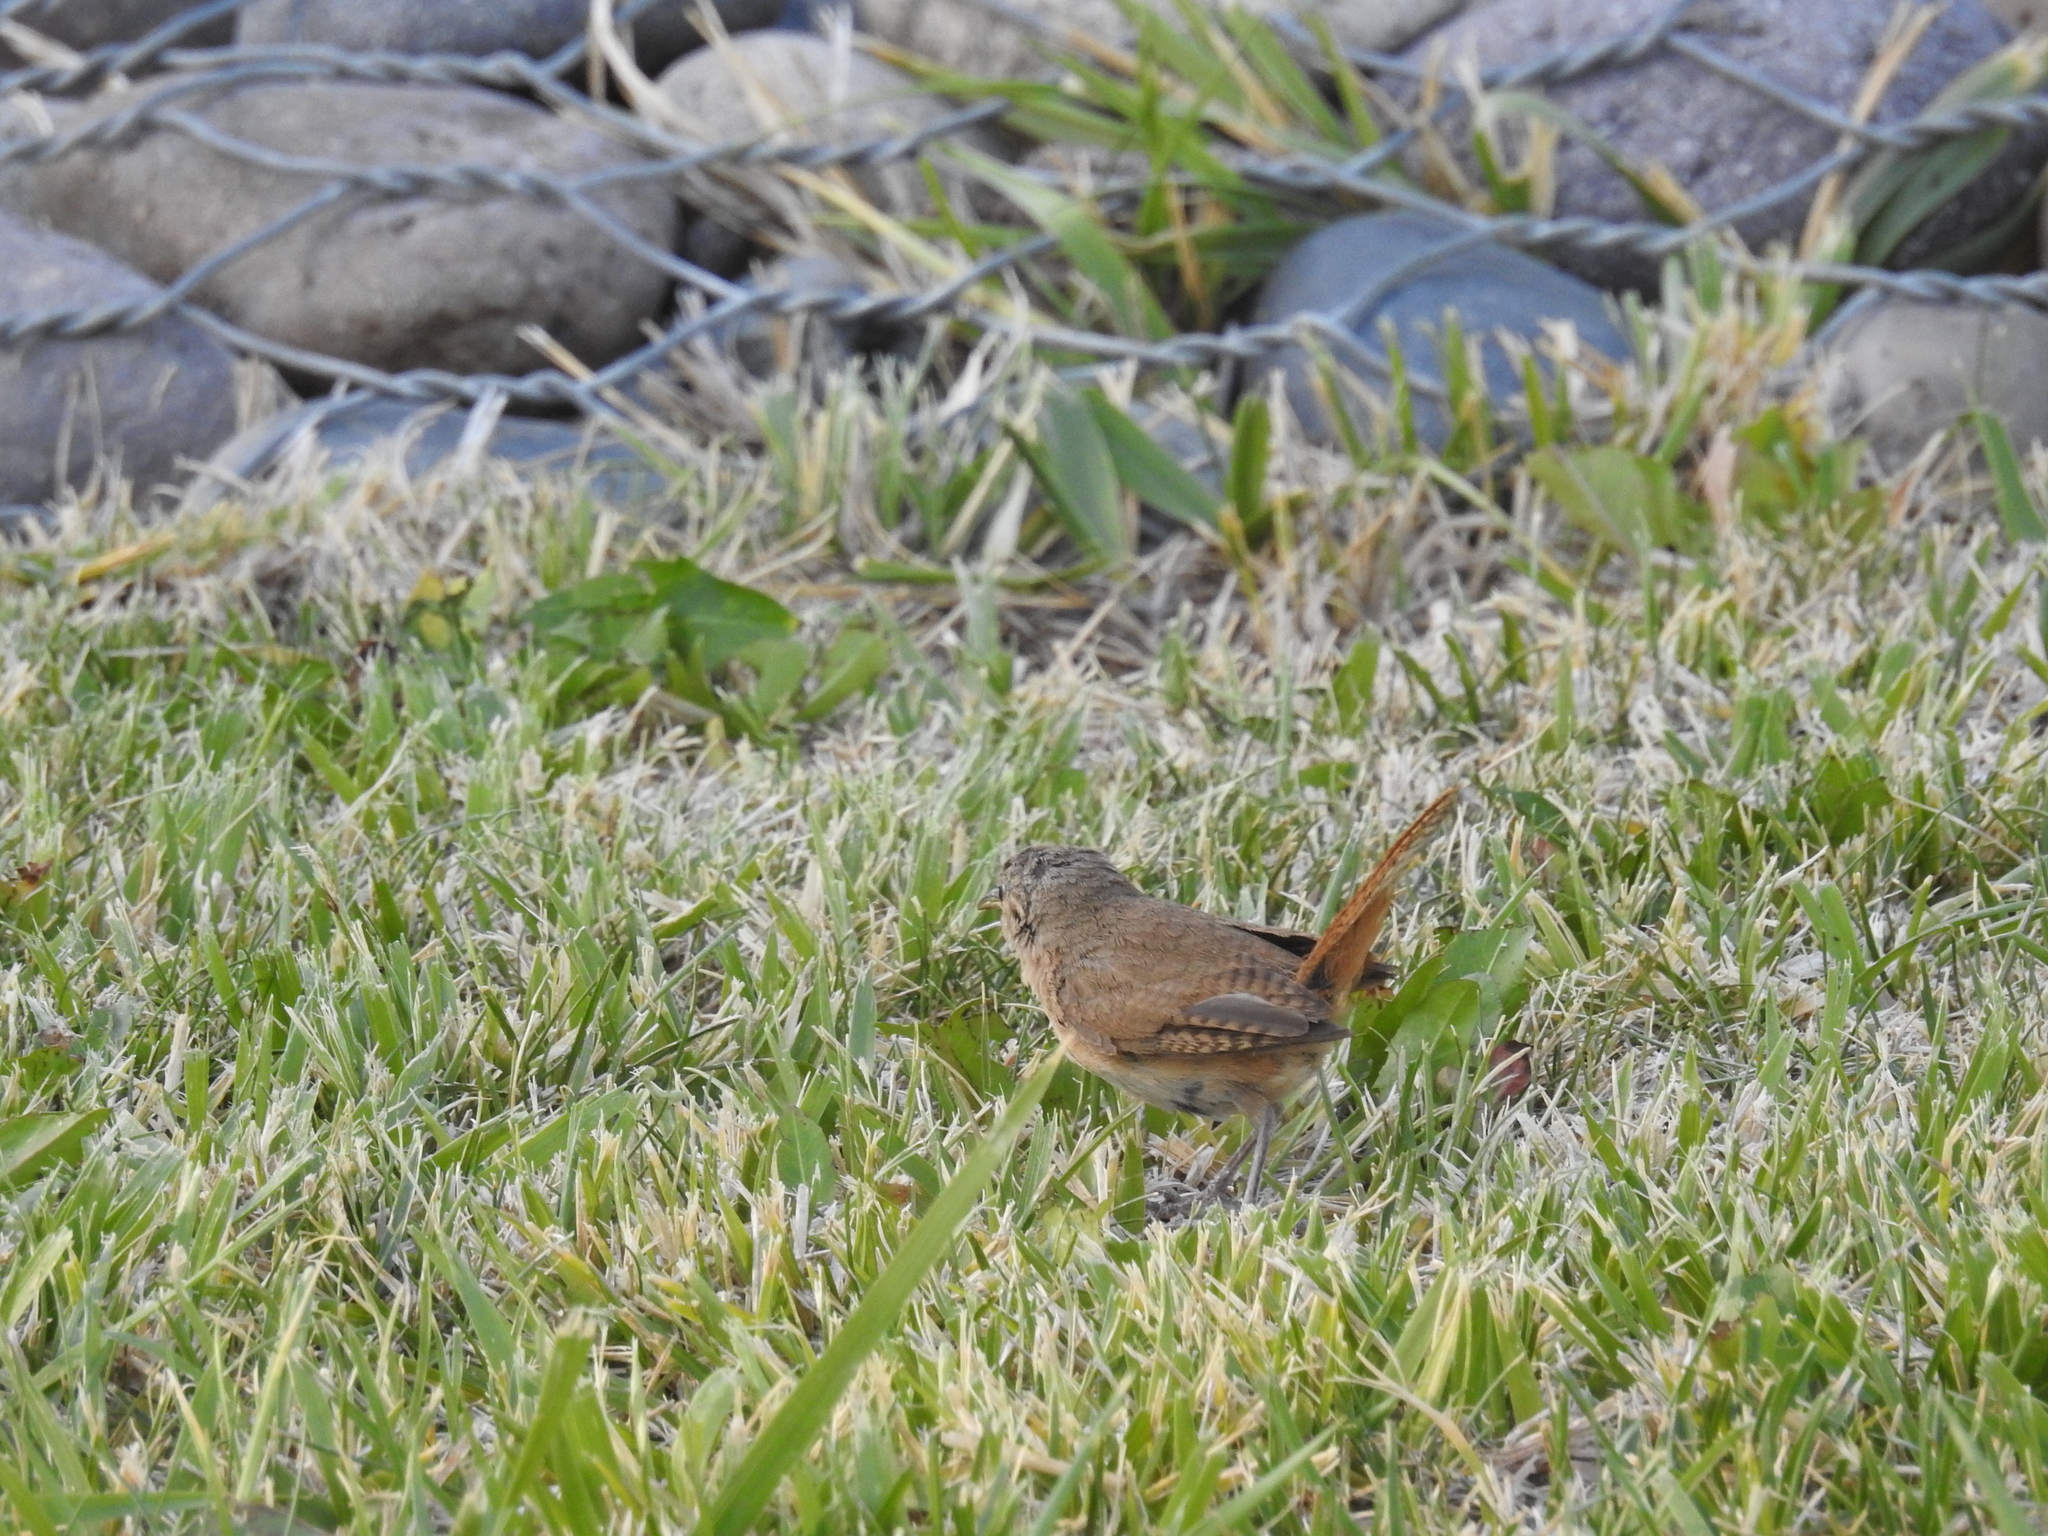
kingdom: Animalia
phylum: Chordata
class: Aves
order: Passeriformes
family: Troglodytidae
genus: Troglodytes
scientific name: Troglodytes aedon
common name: House wren
